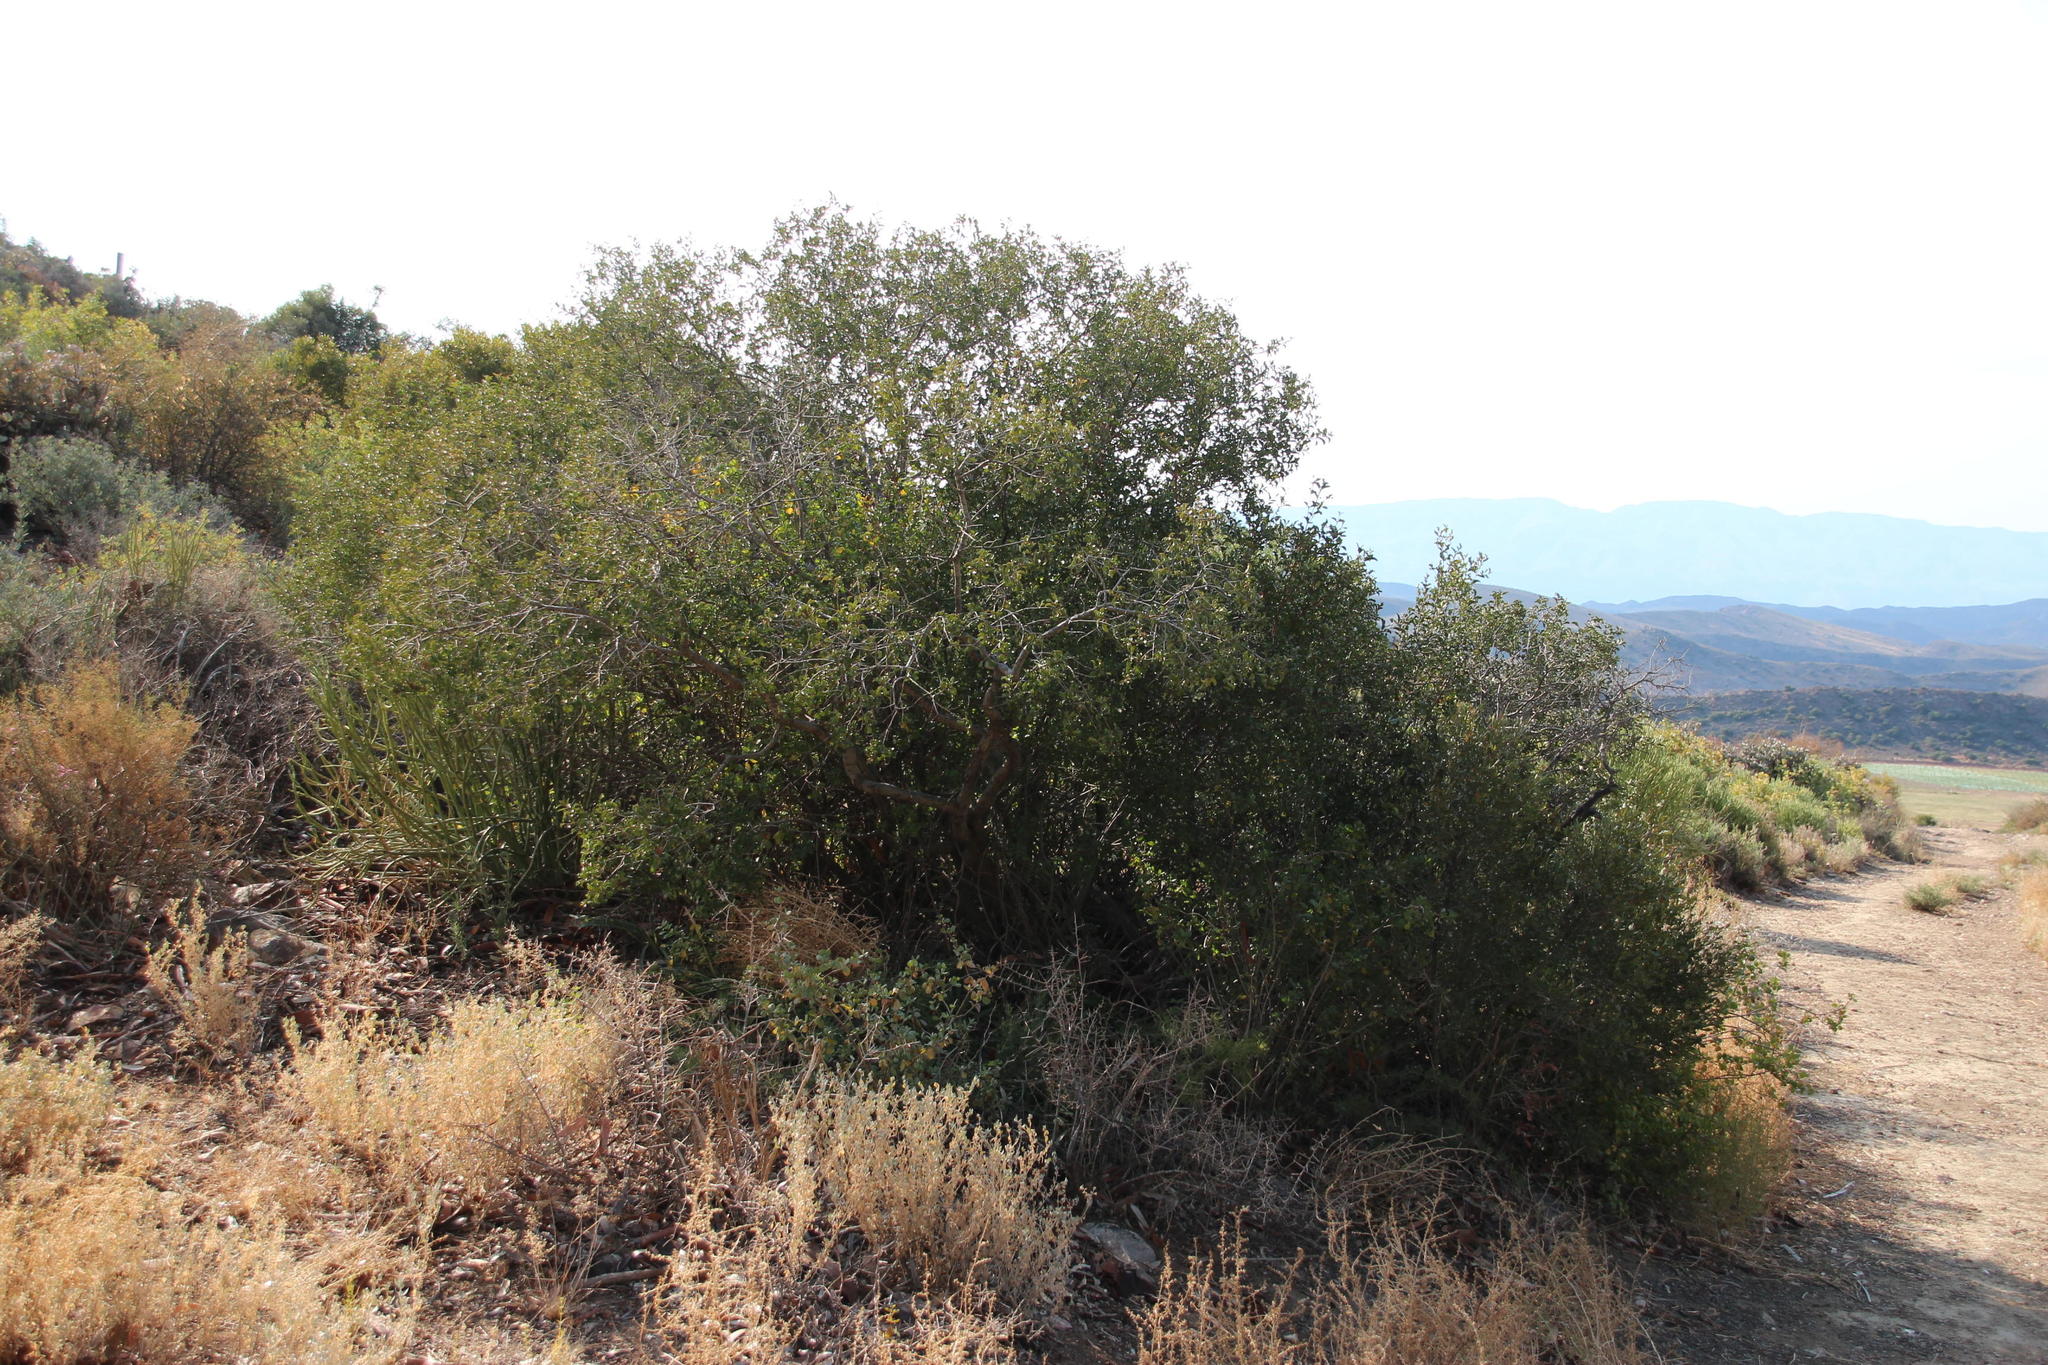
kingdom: Plantae
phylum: Tracheophyta
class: Magnoliopsida
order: Ericales
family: Ebenaceae
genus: Euclea
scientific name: Euclea undulata
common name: Small-leaved guarri
